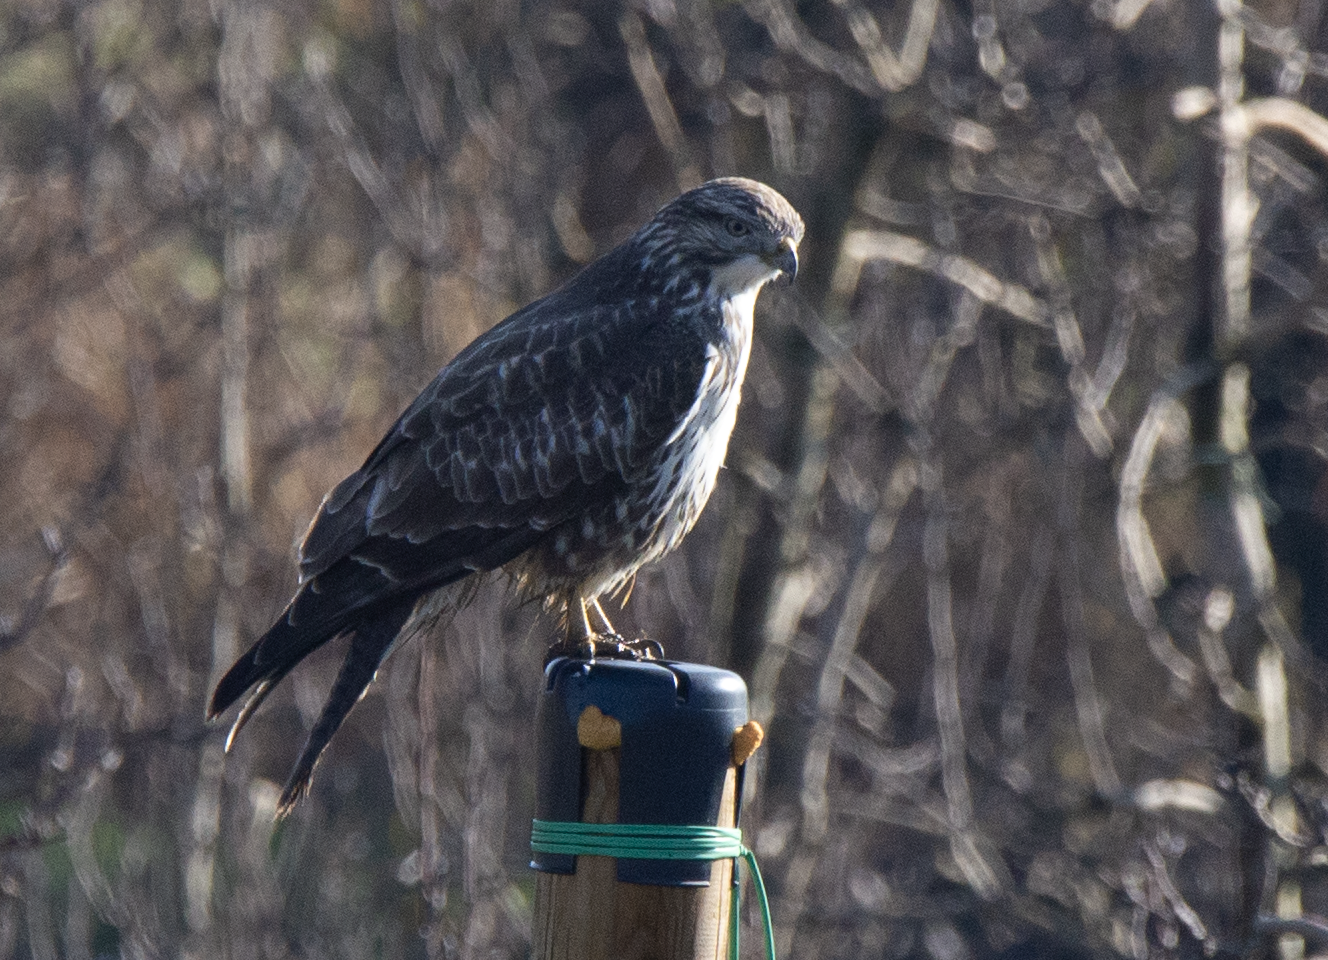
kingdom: Animalia
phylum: Chordata
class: Aves
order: Accipitriformes
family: Accipitridae
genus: Buteo
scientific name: Buteo buteo
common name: Common buzzard
